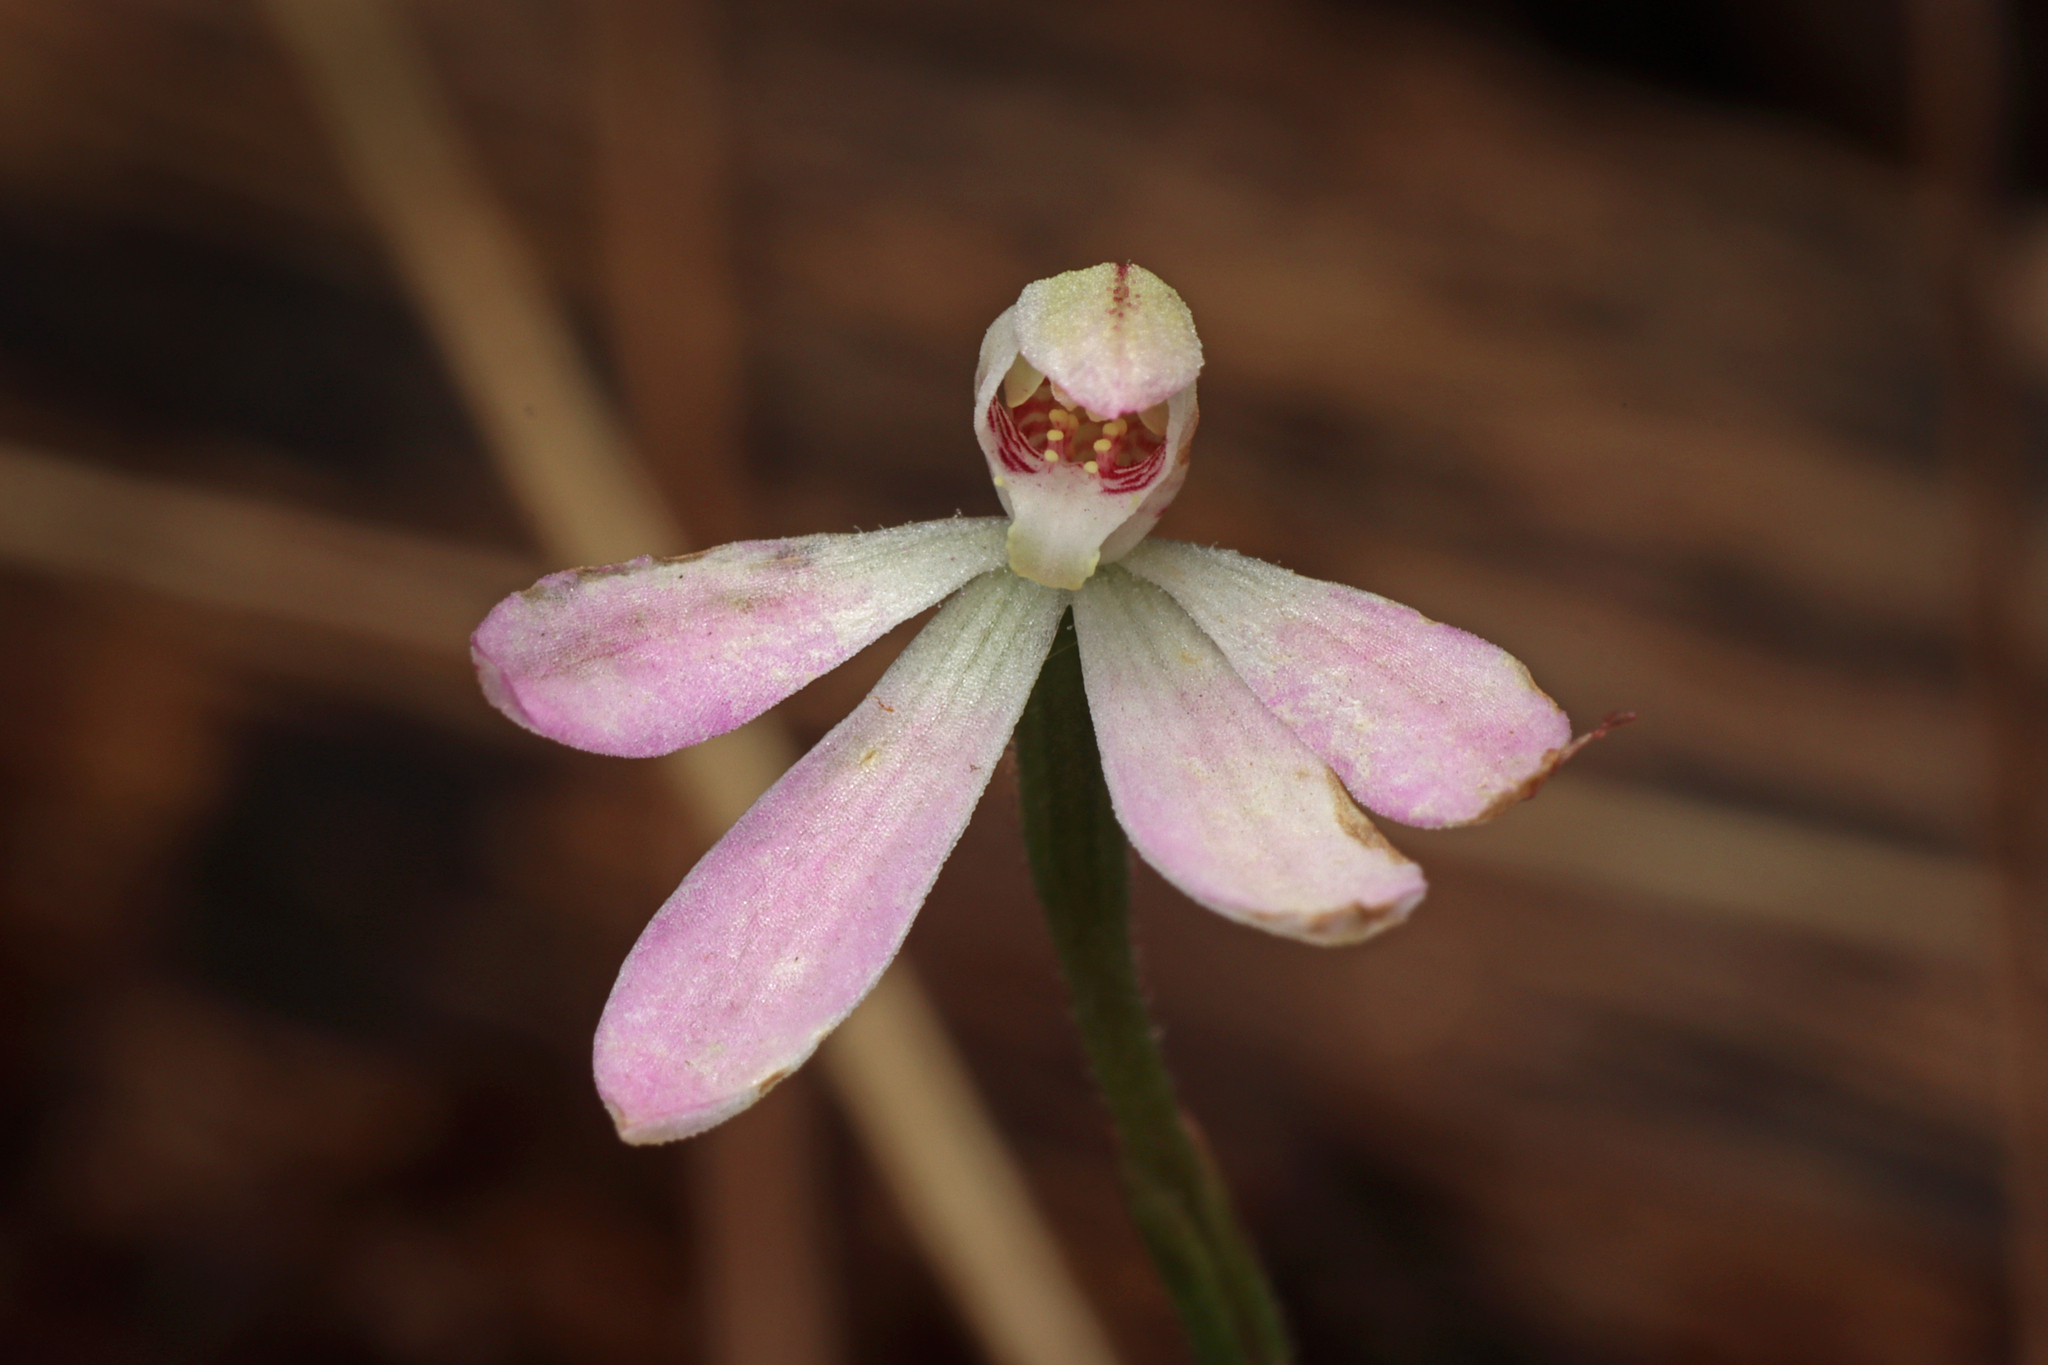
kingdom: Plantae
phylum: Tracheophyta
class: Liliopsida
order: Asparagales
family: Orchidaceae
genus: Caladenia
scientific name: Caladenia carnea
